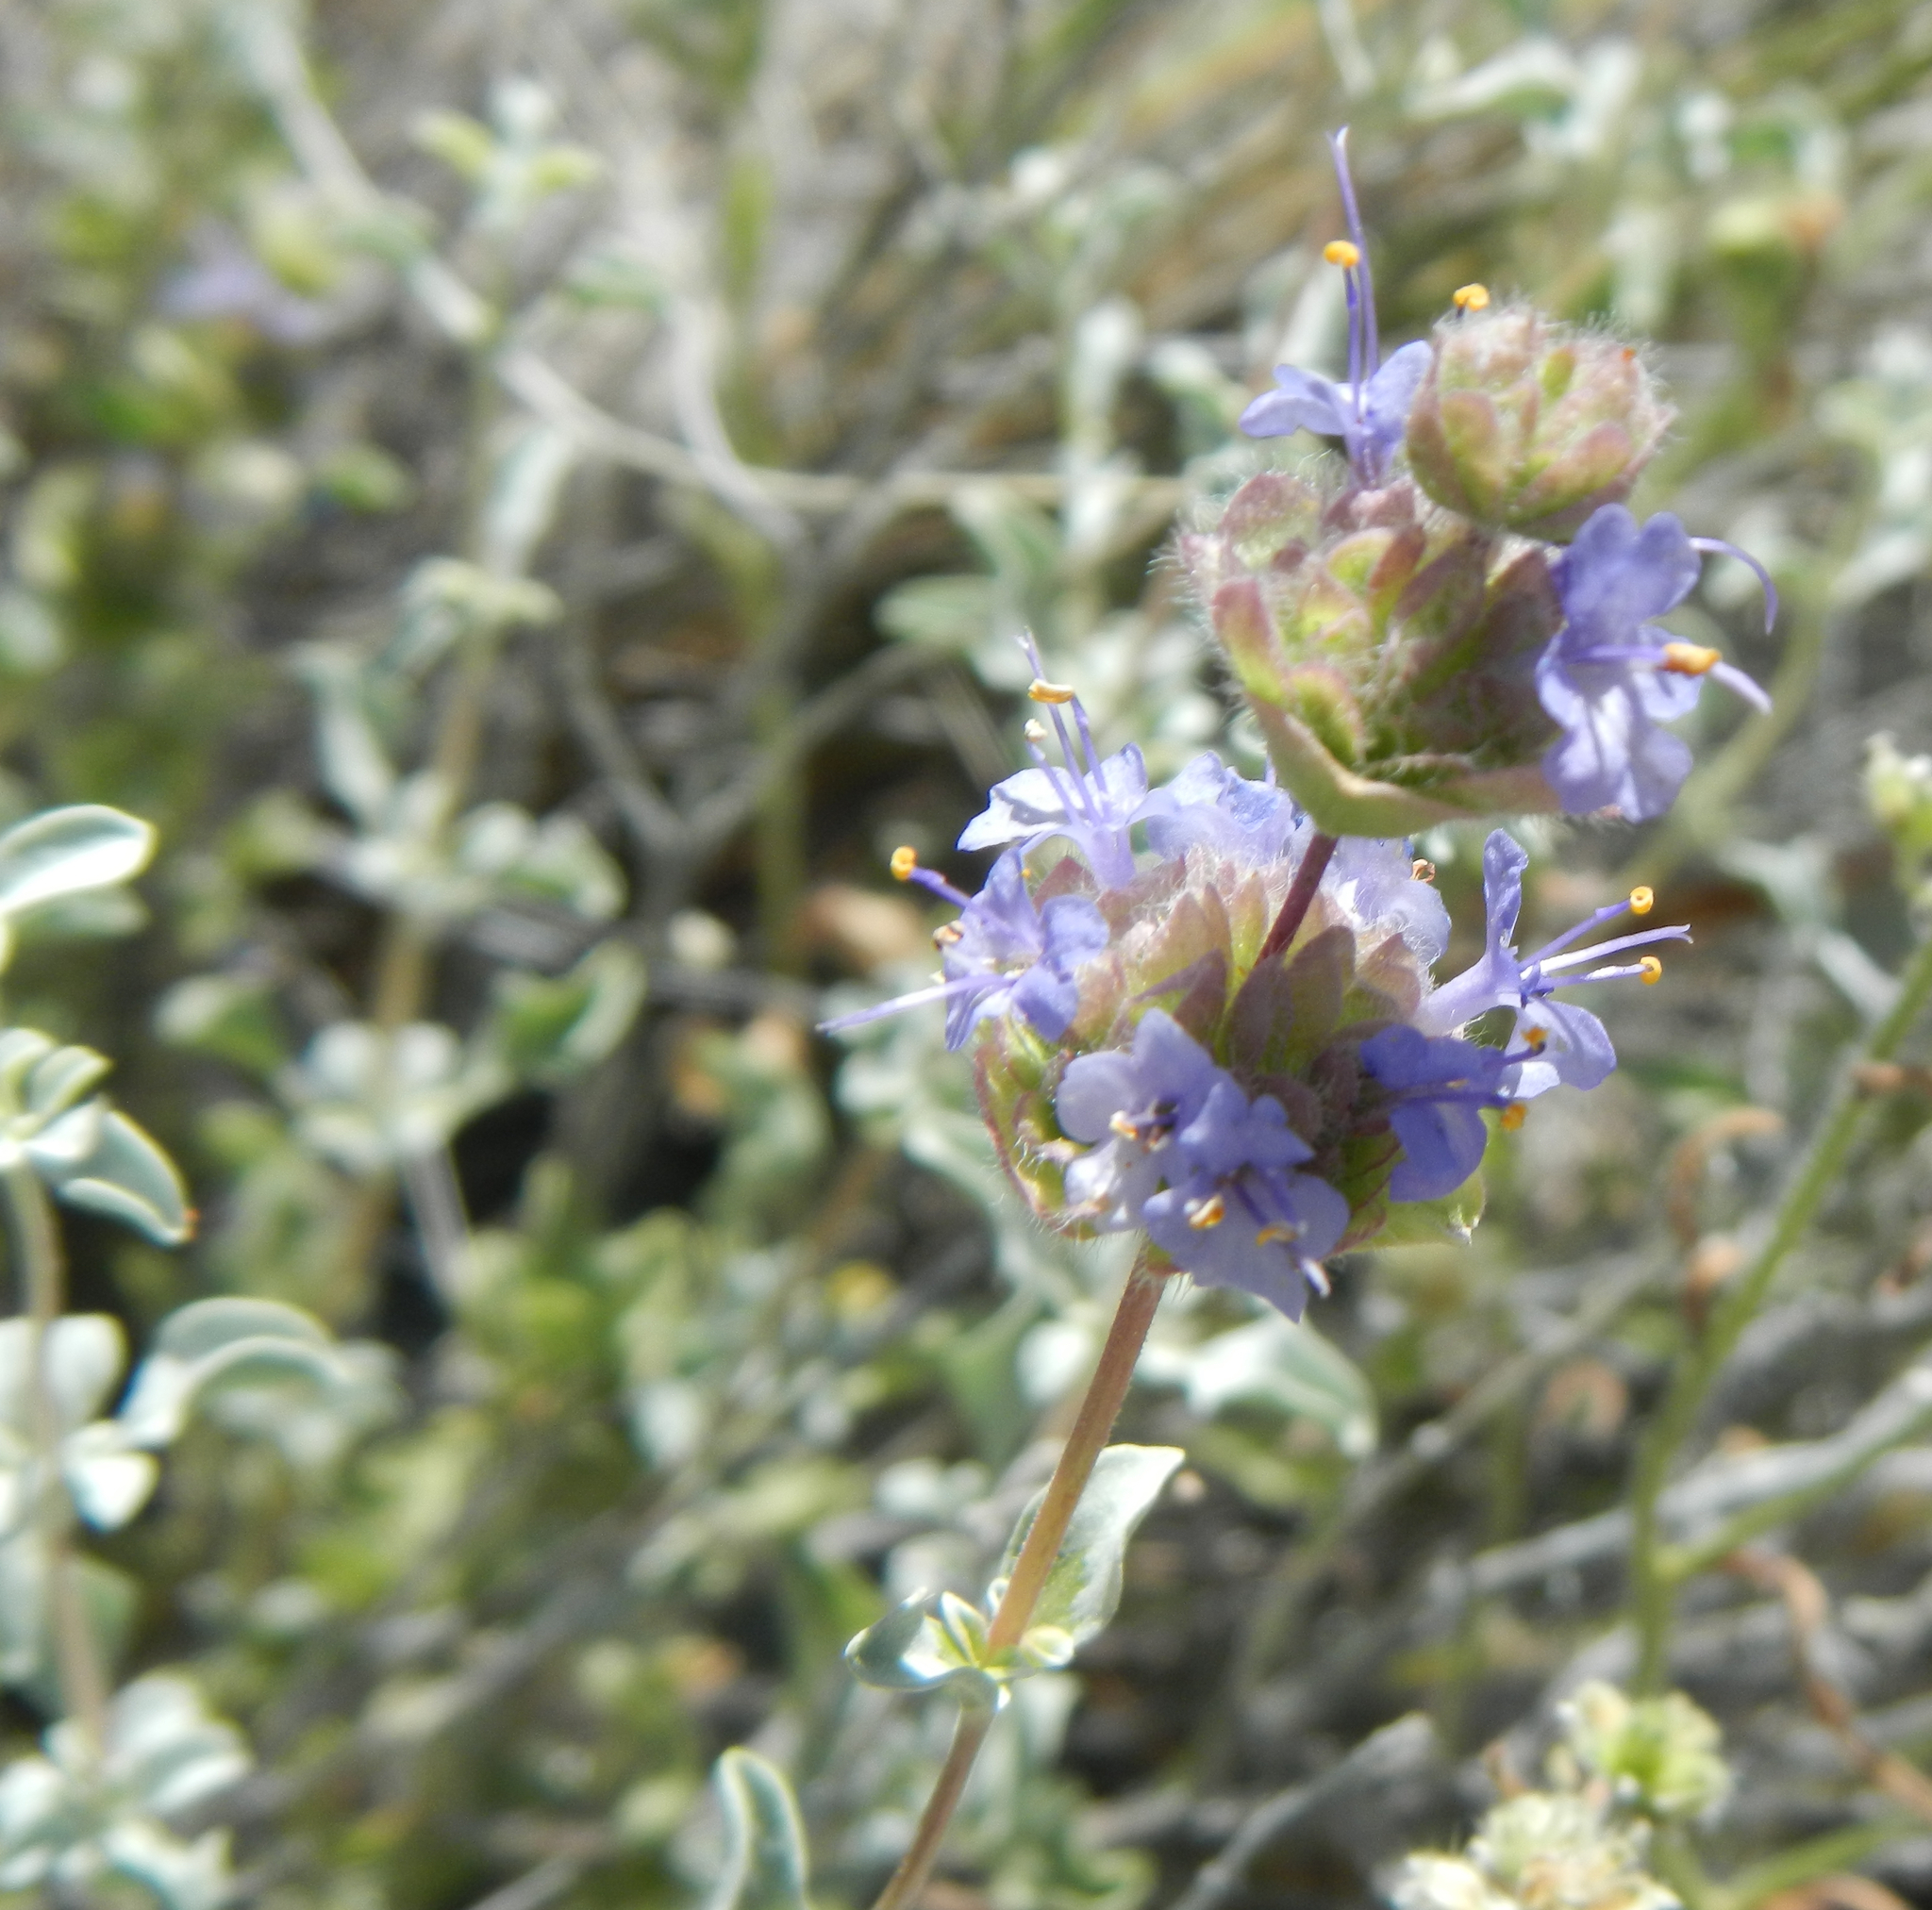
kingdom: Plantae
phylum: Tracheophyta
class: Magnoliopsida
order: Lamiales
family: Lamiaceae
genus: Salvia
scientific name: Salvia dorrii
